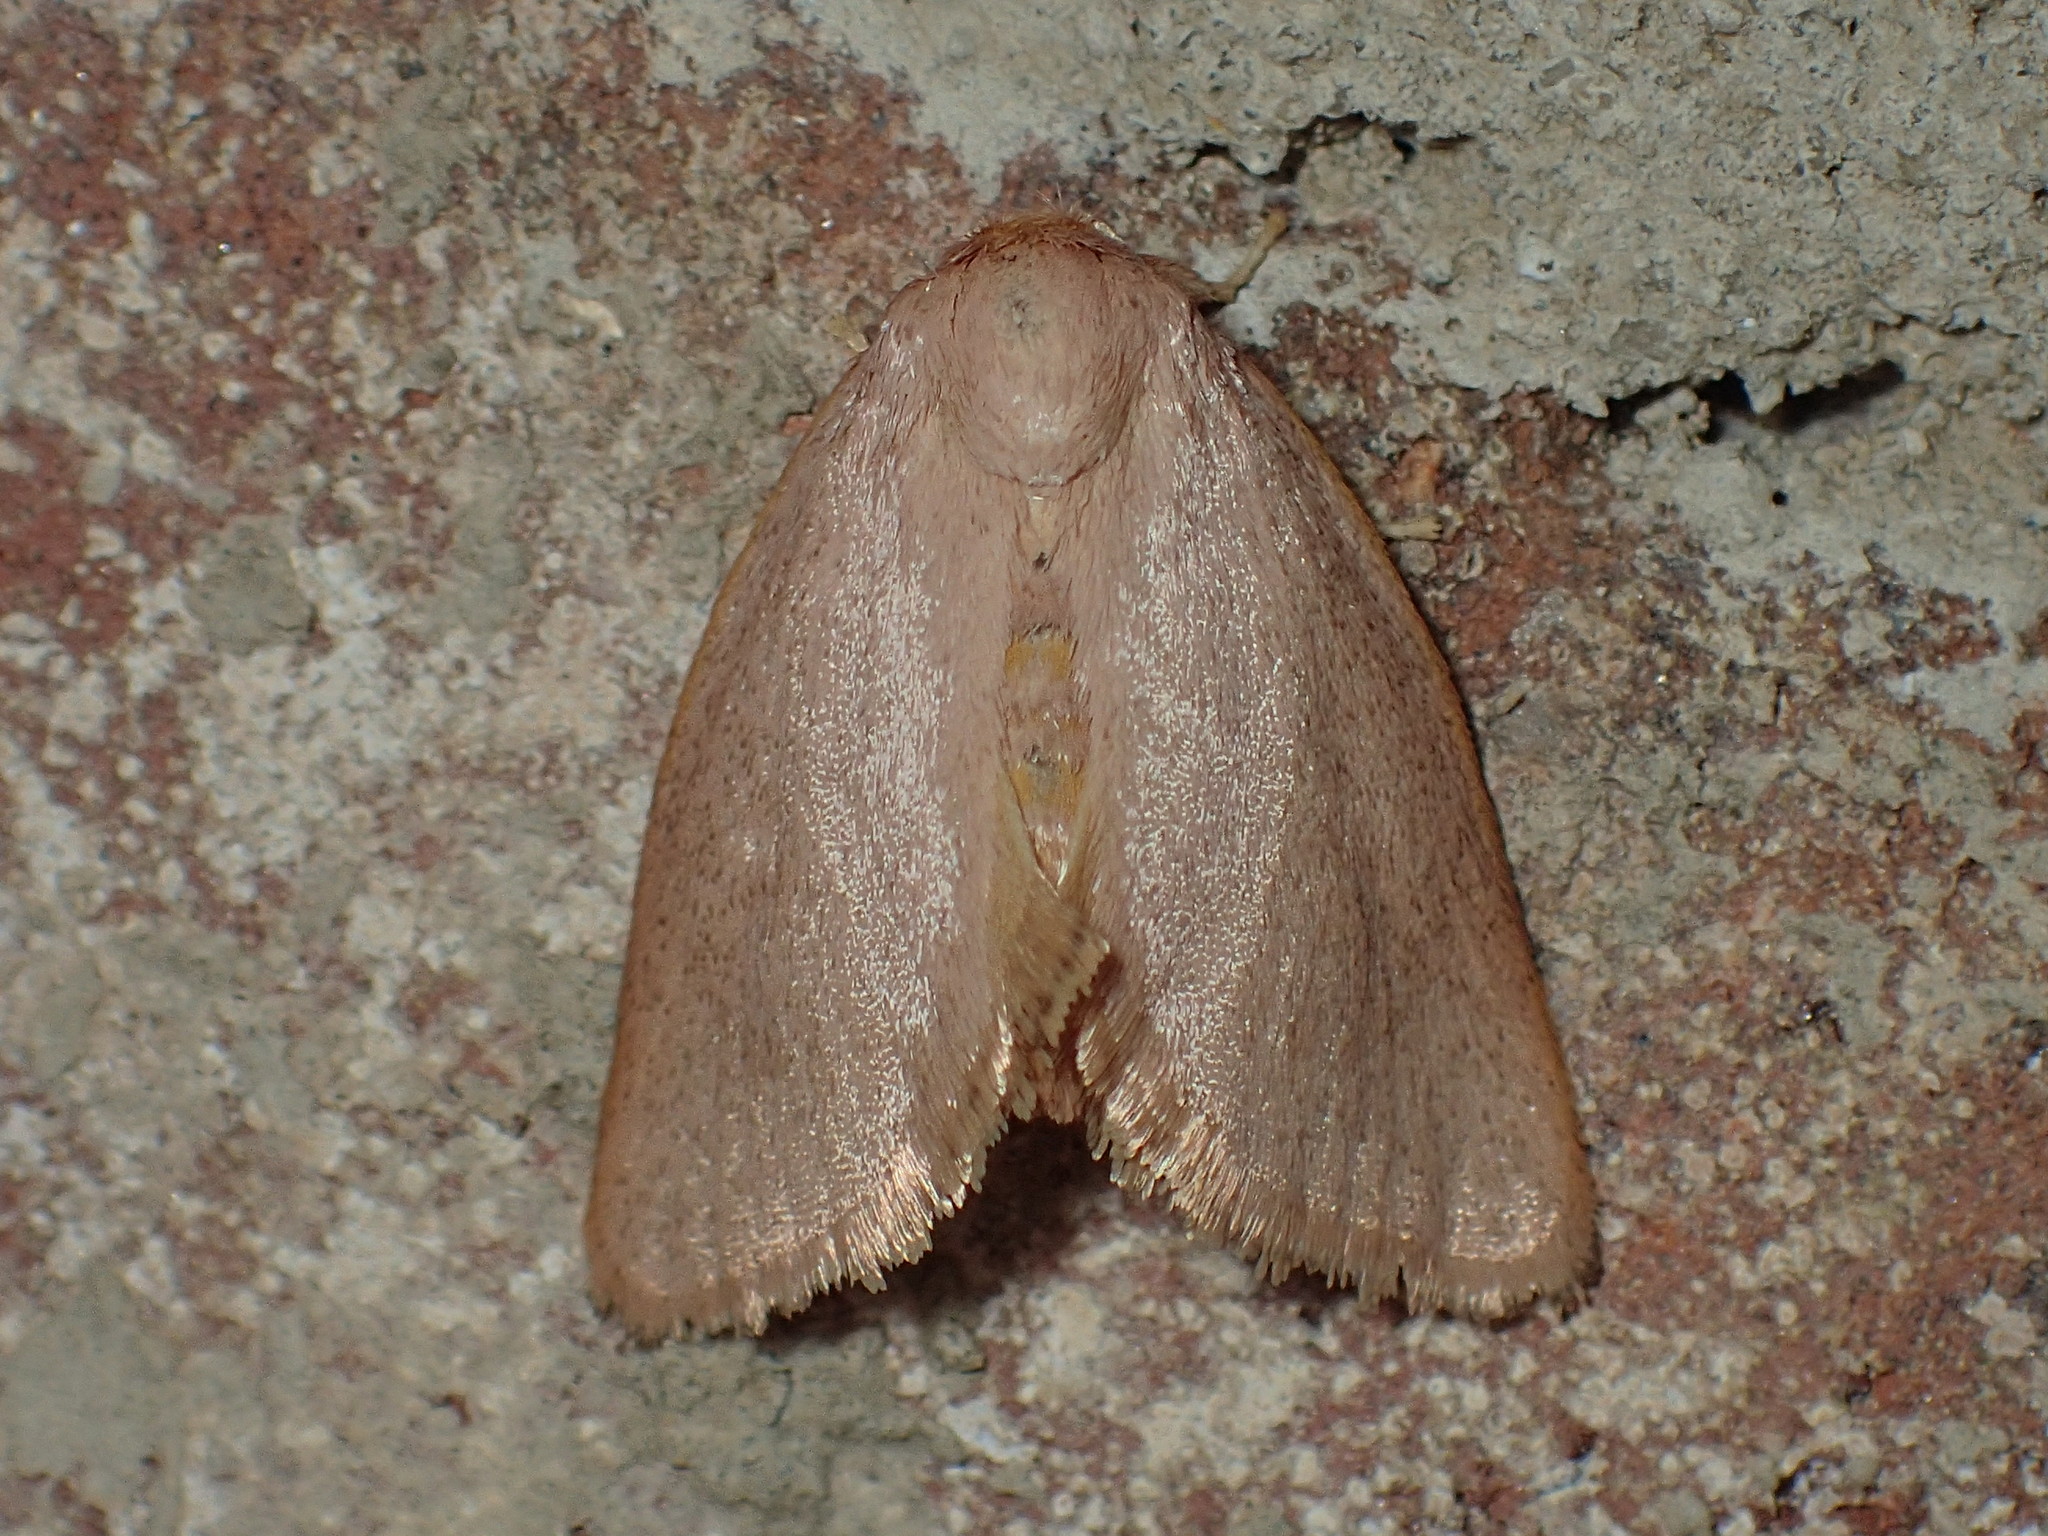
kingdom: Animalia
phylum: Arthropoda
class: Insecta
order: Lepidoptera
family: Limacodidae
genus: Tortricidia
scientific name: Tortricidia pallida
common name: Red-crossed button slug moth
